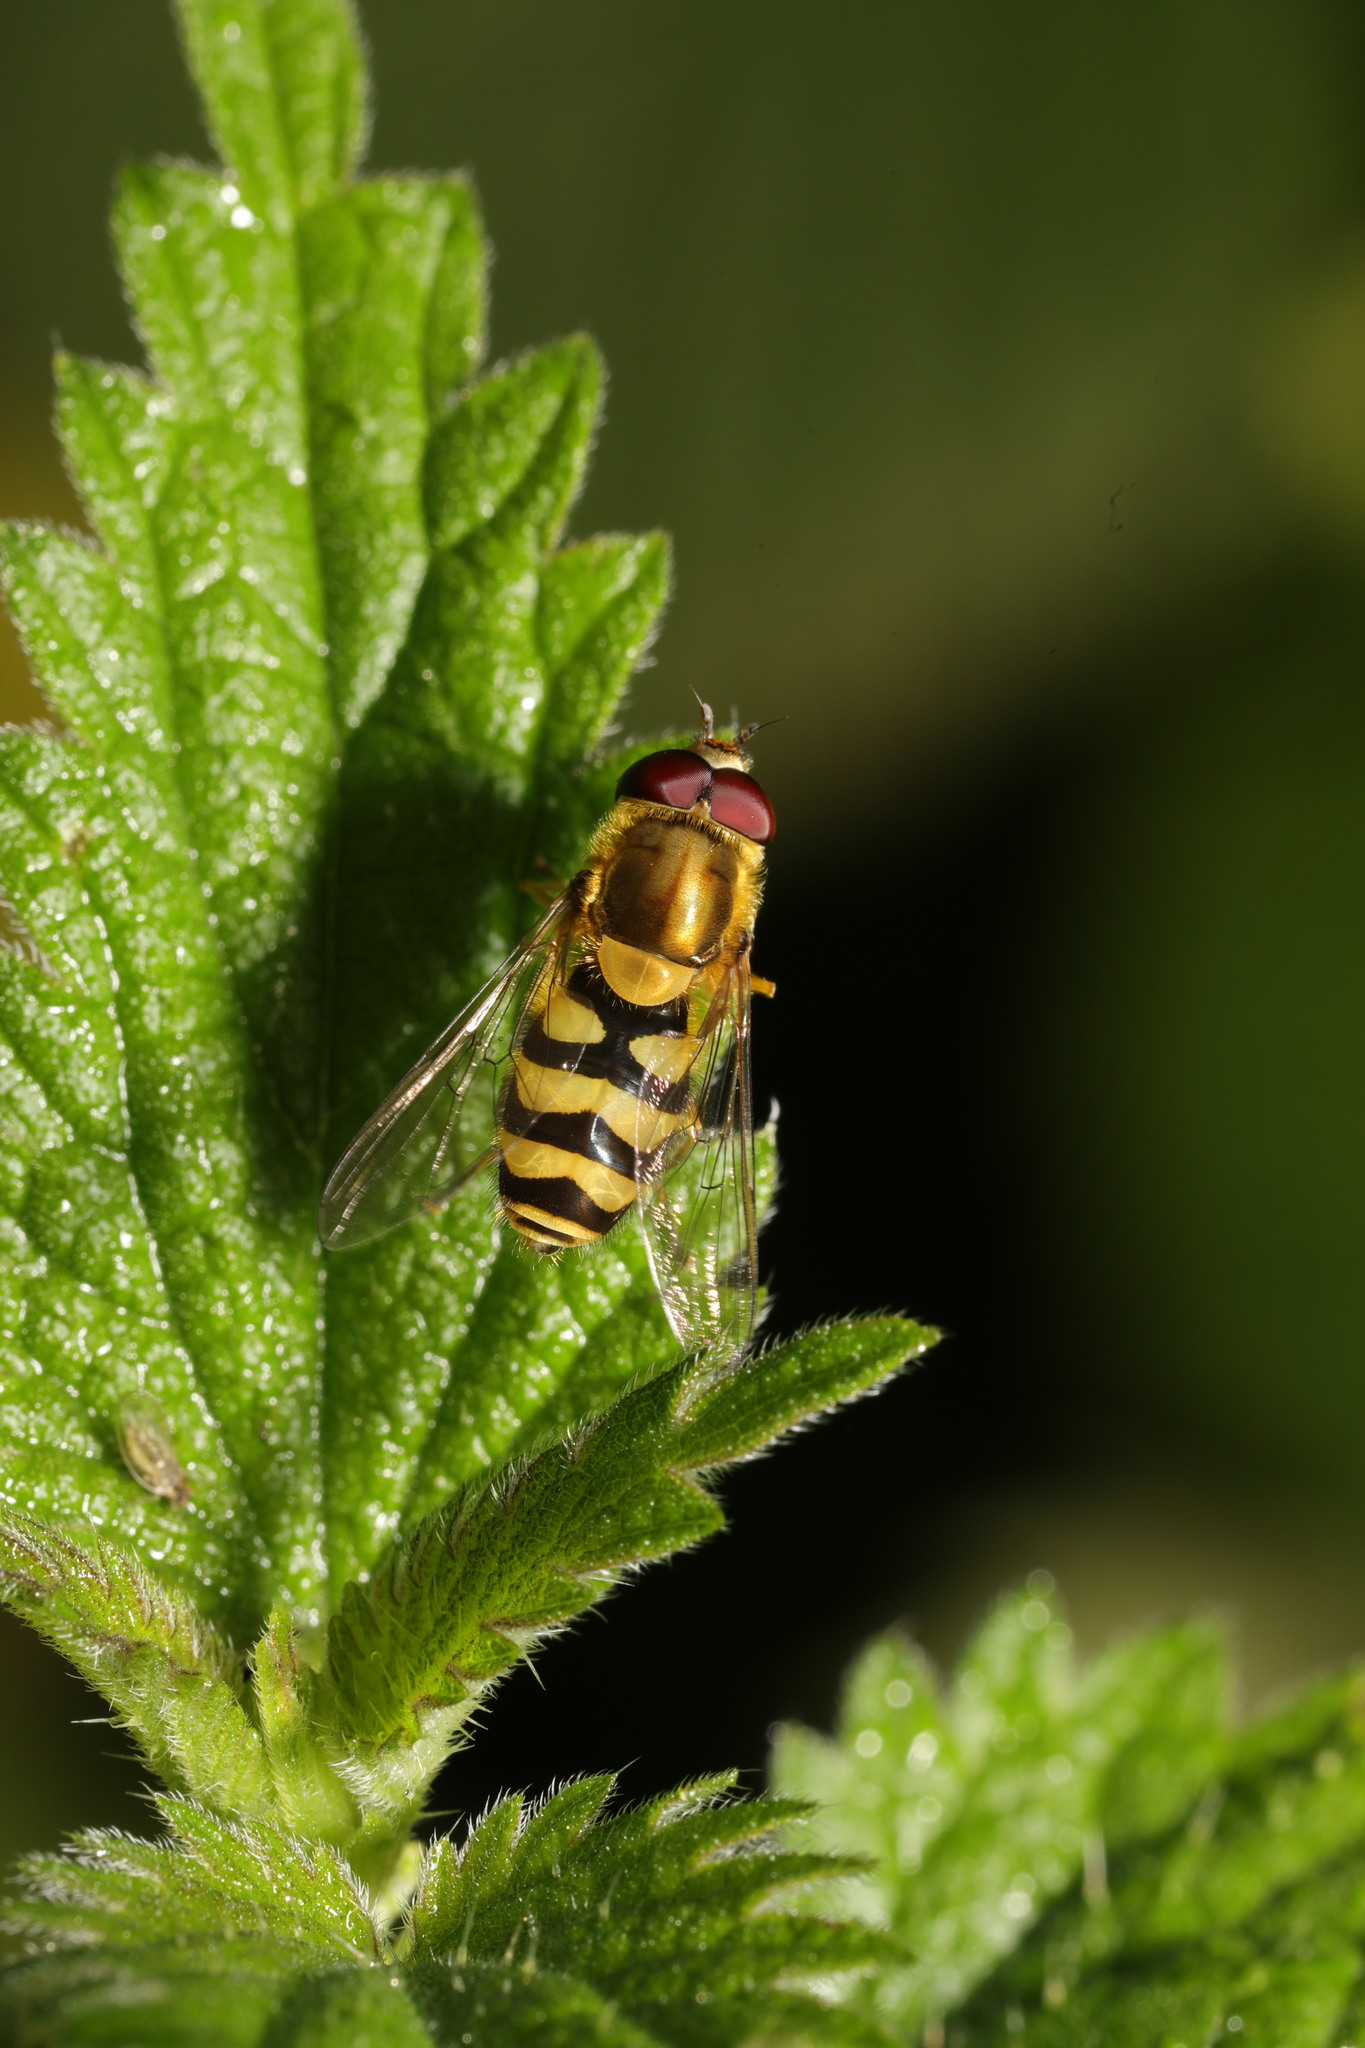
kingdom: Animalia
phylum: Arthropoda
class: Insecta
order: Diptera
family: Syrphidae
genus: Syrphus
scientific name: Syrphus
